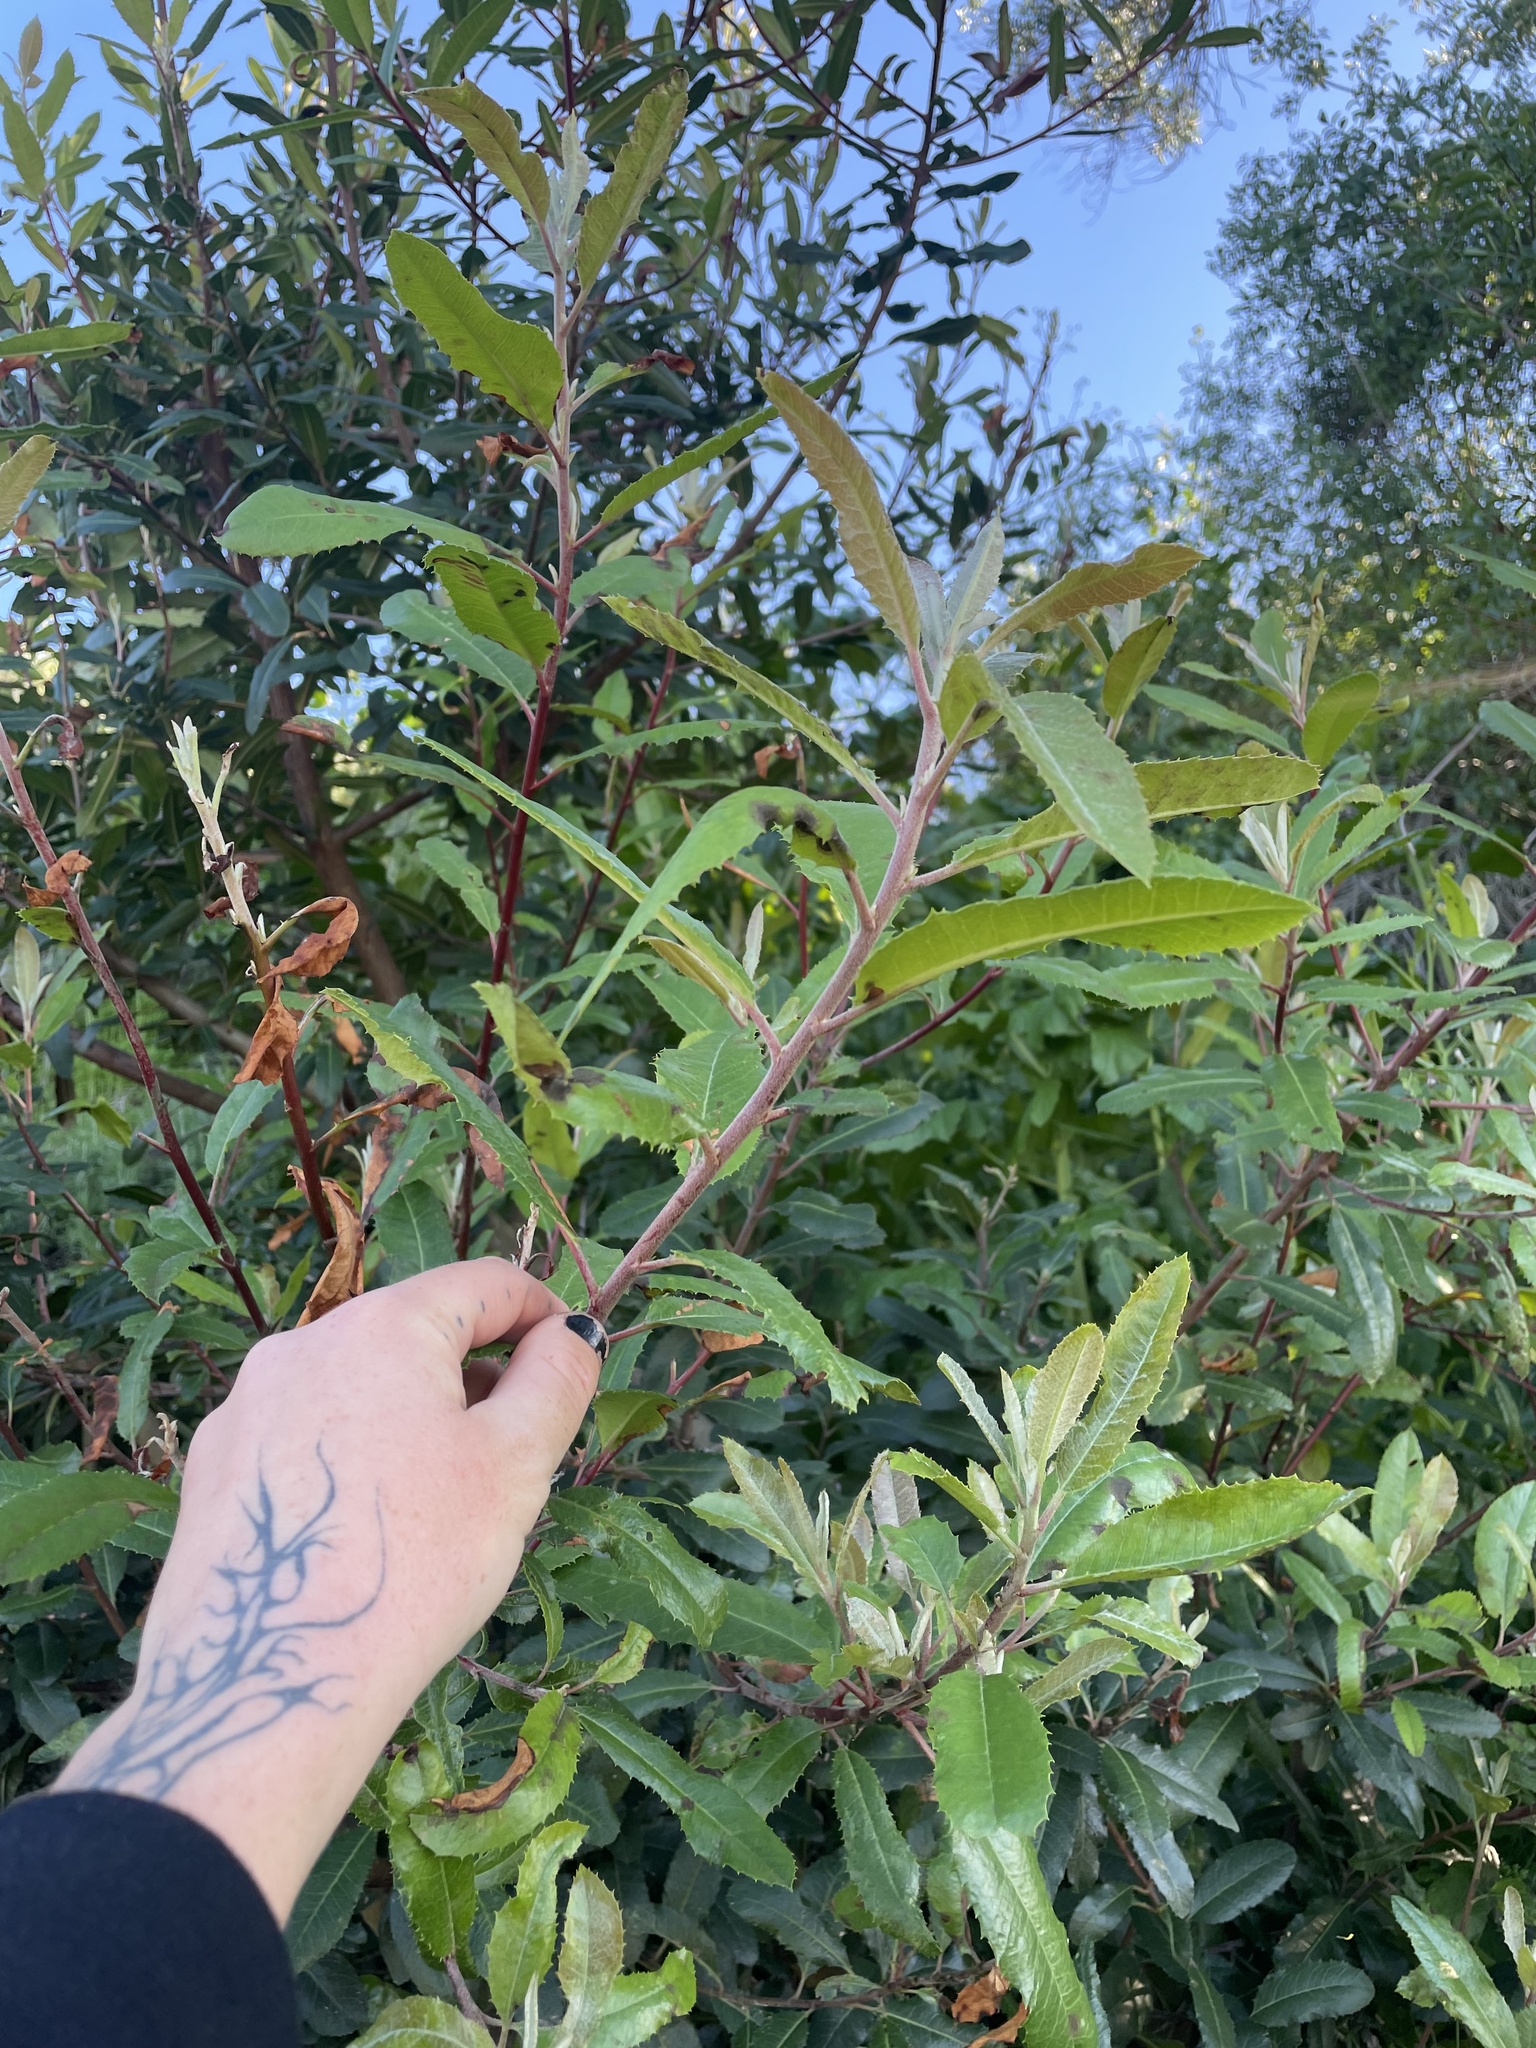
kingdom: Plantae
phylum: Tracheophyta
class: Magnoliopsida
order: Rosales
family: Rosaceae
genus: Heteromeles
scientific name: Heteromeles arbutifolia
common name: California-holly
